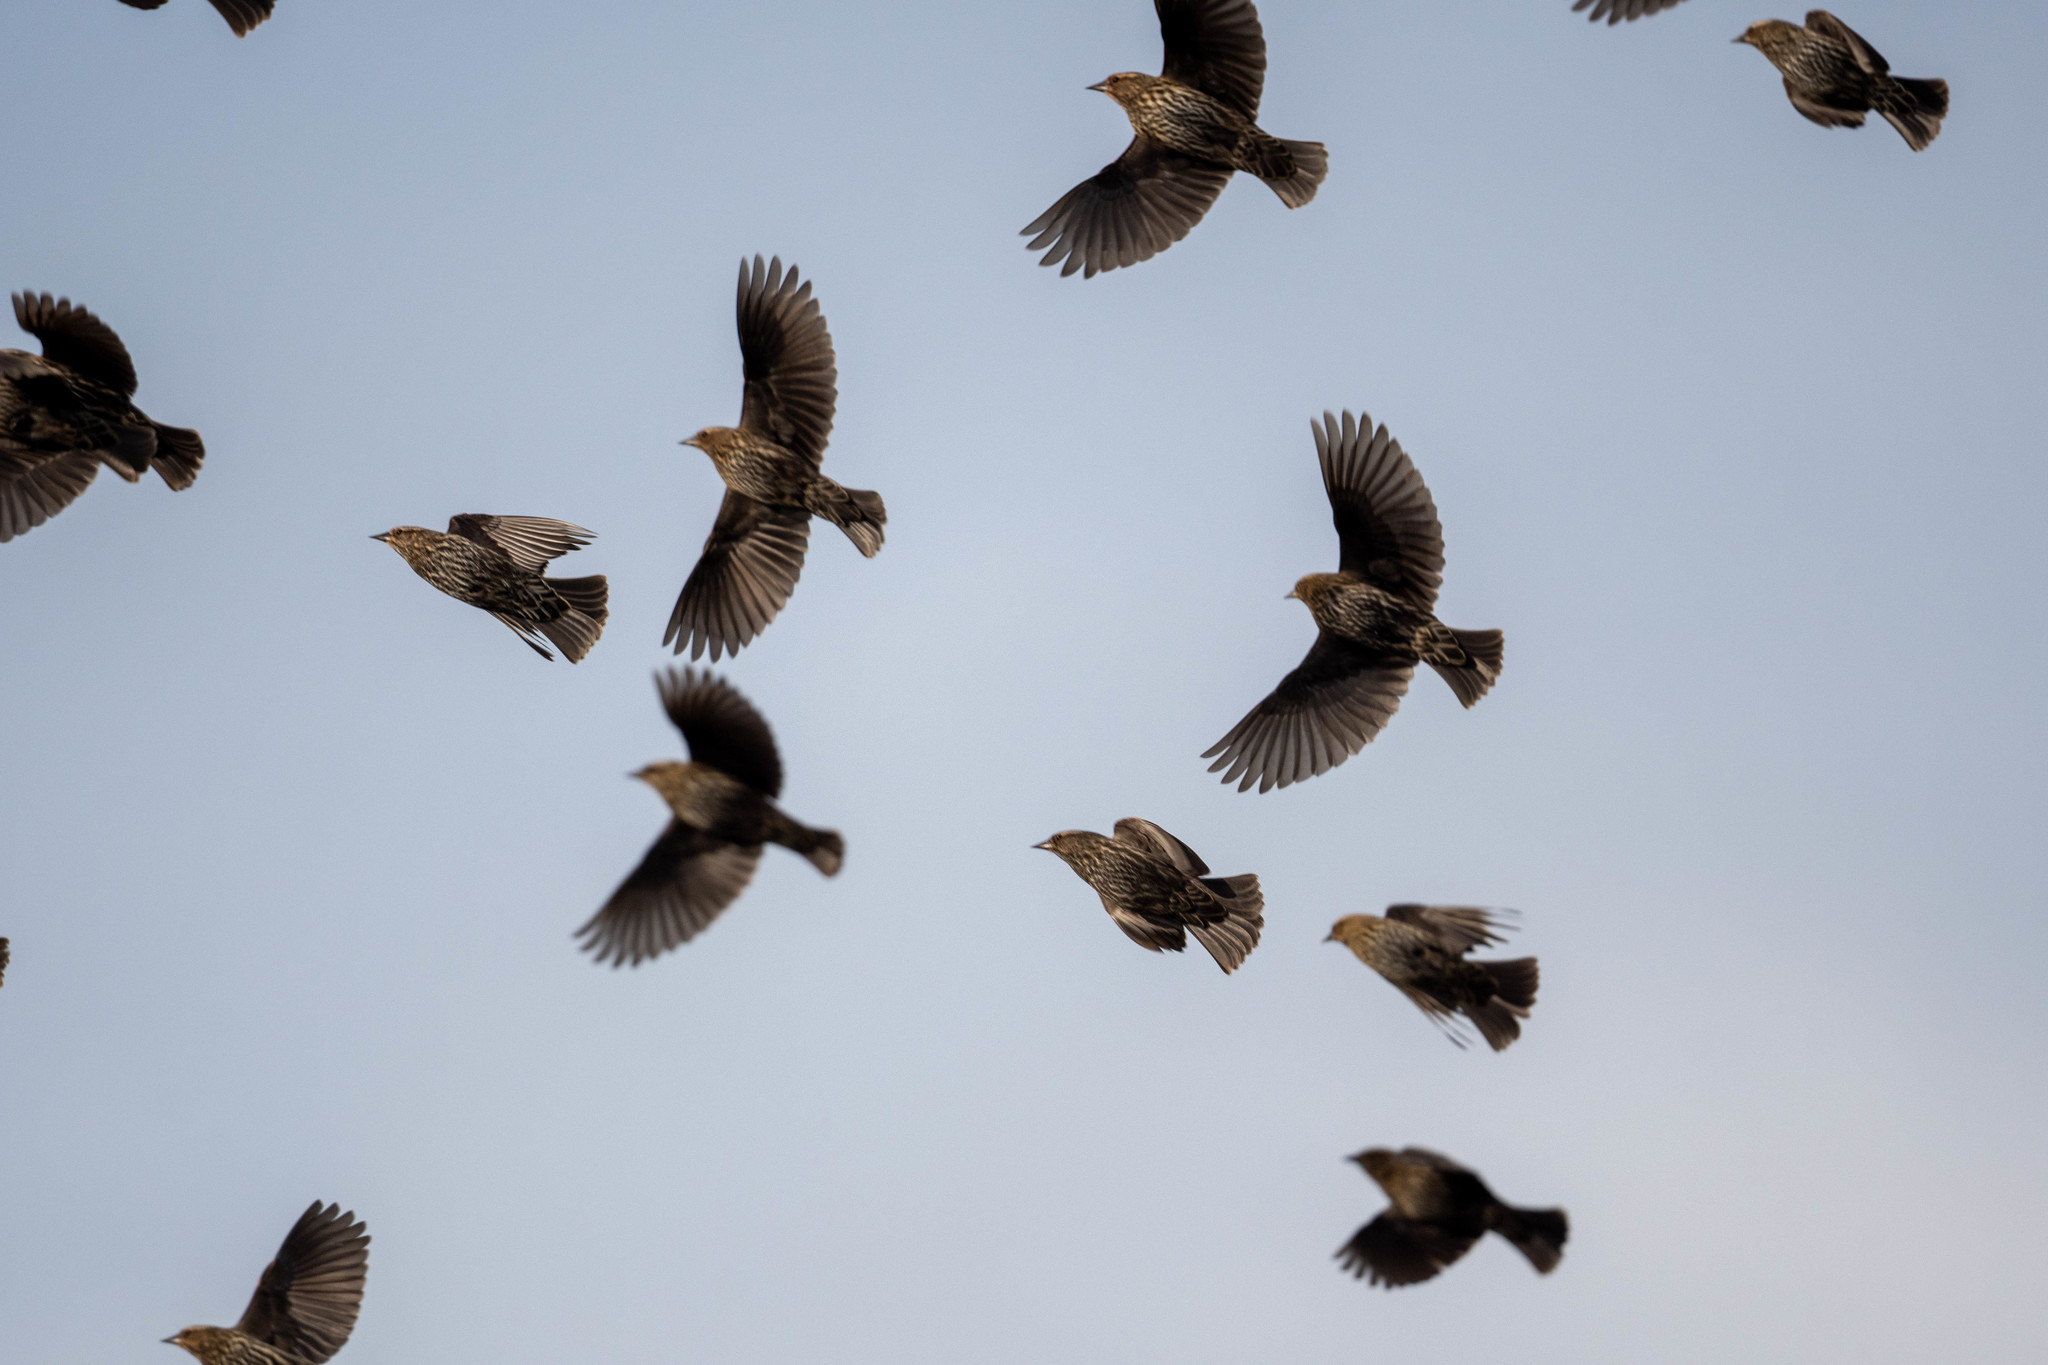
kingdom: Animalia
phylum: Chordata
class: Aves
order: Passeriformes
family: Icteridae
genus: Agelaius
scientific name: Agelaius phoeniceus
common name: Red-winged blackbird
